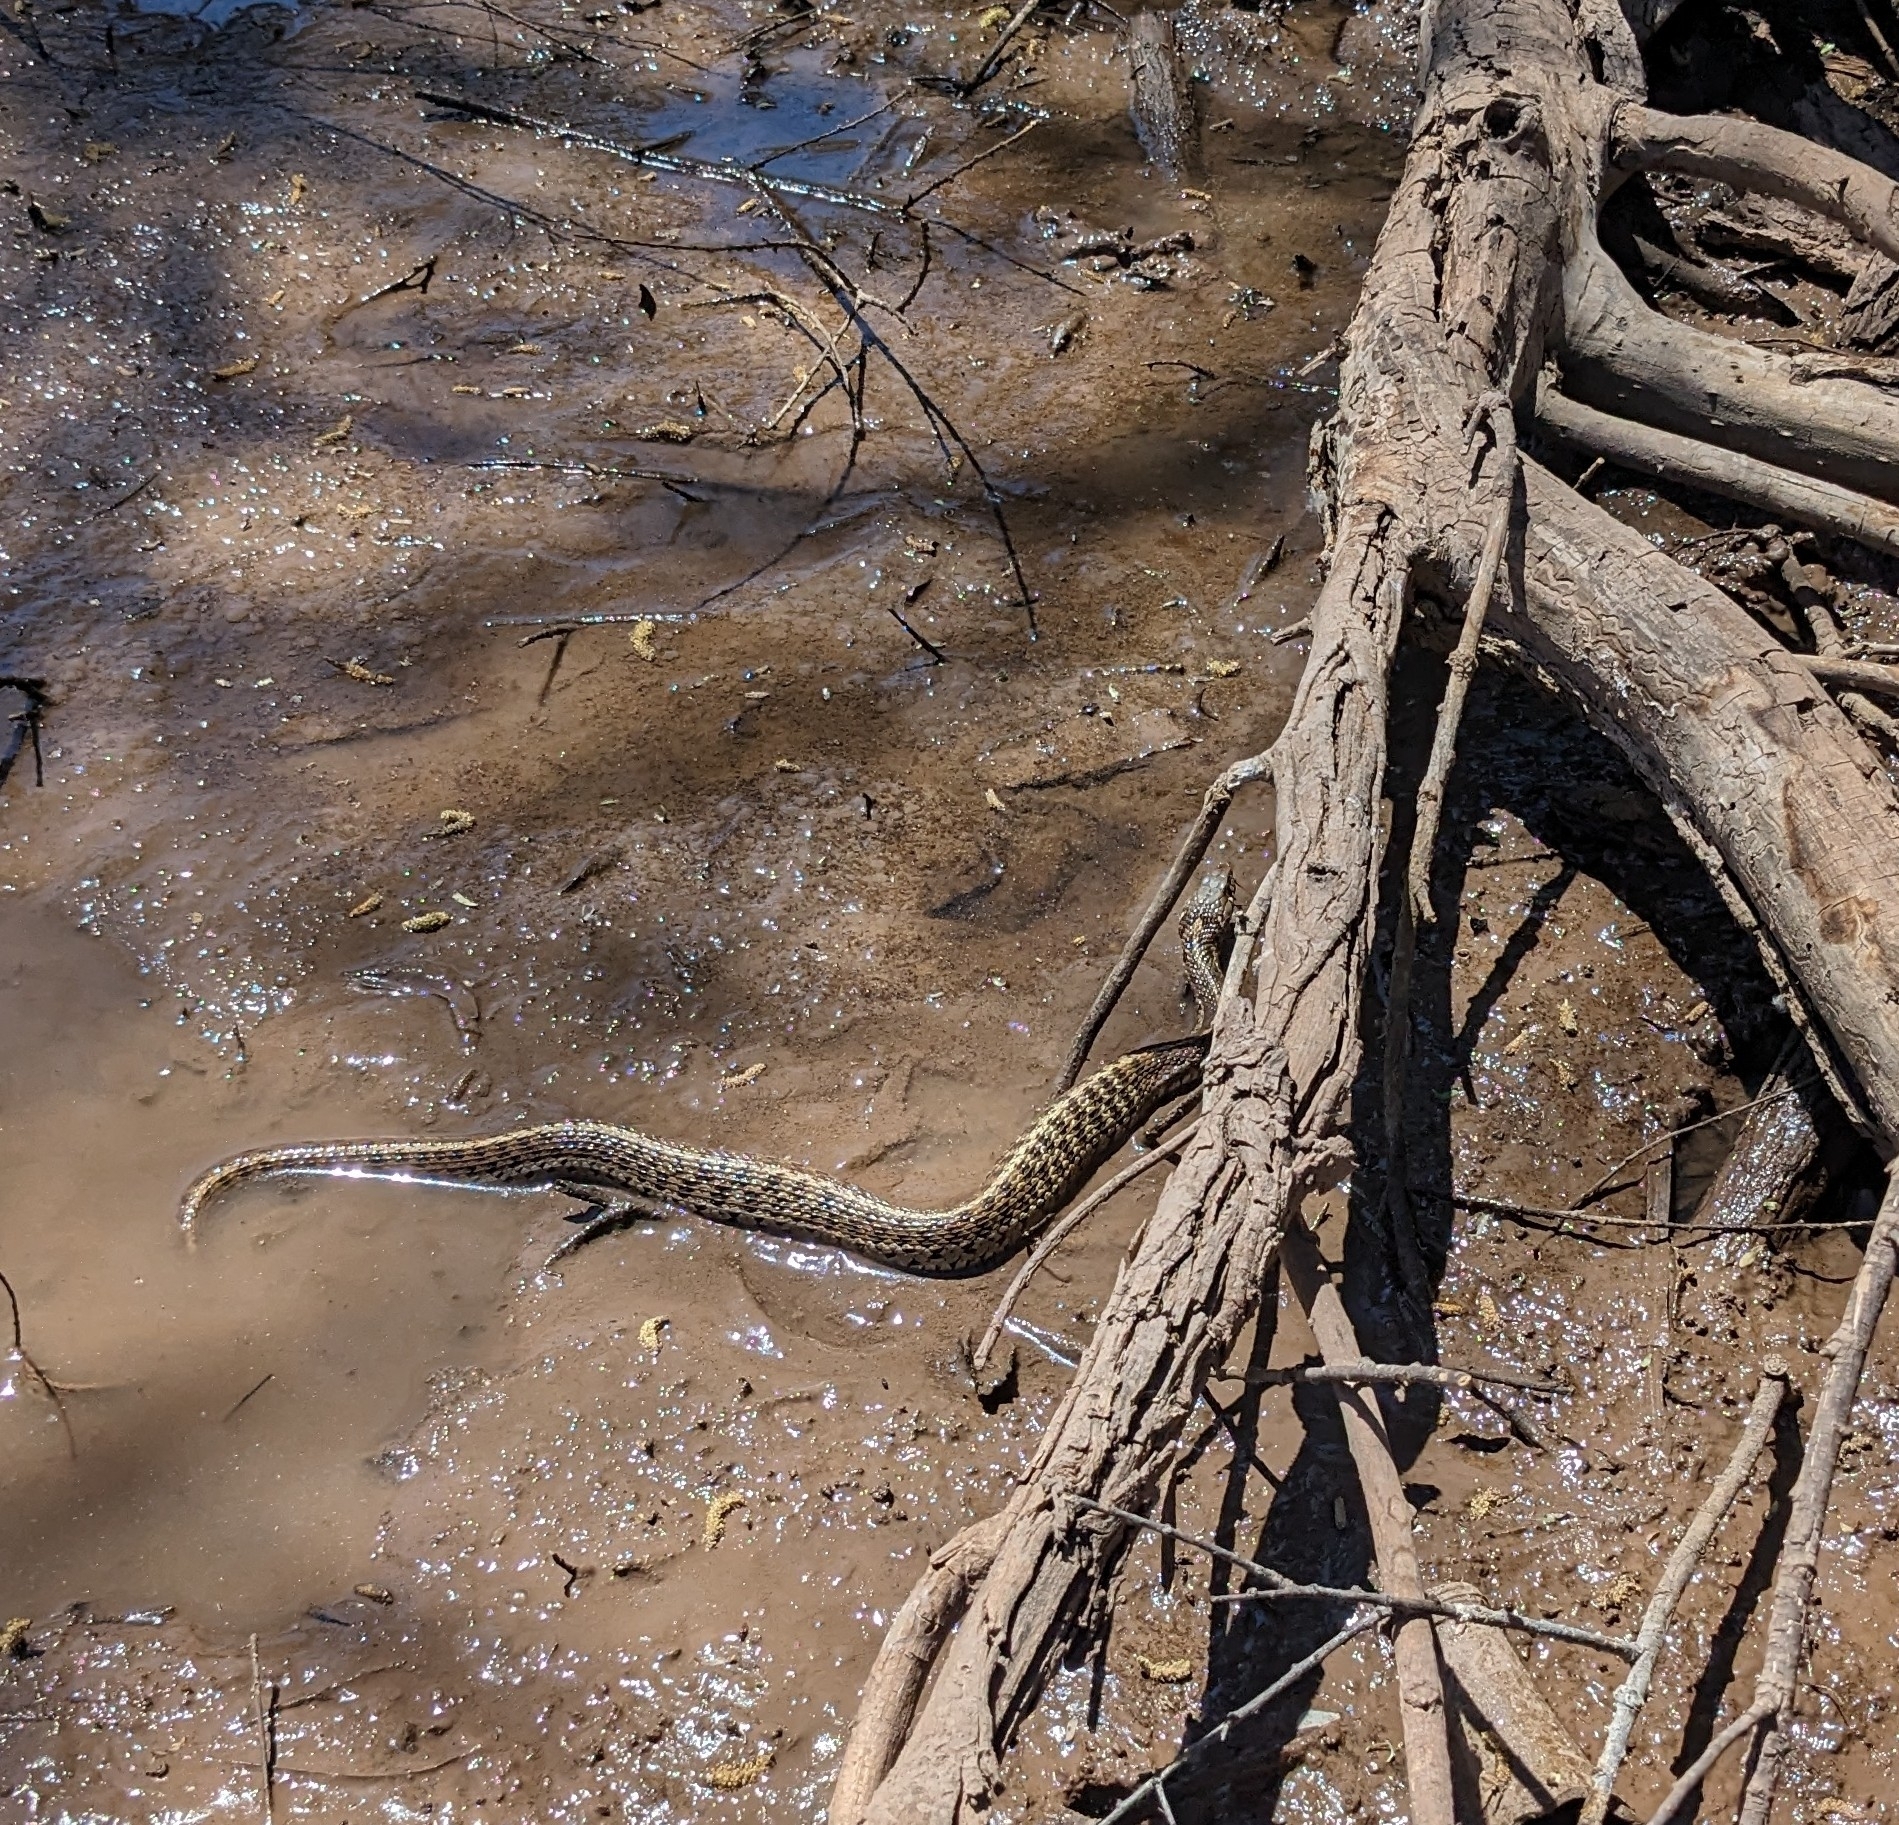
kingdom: Animalia
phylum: Chordata
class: Squamata
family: Colubridae
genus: Thamnophis
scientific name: Thamnophis marcianus
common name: Checkered garter snake
